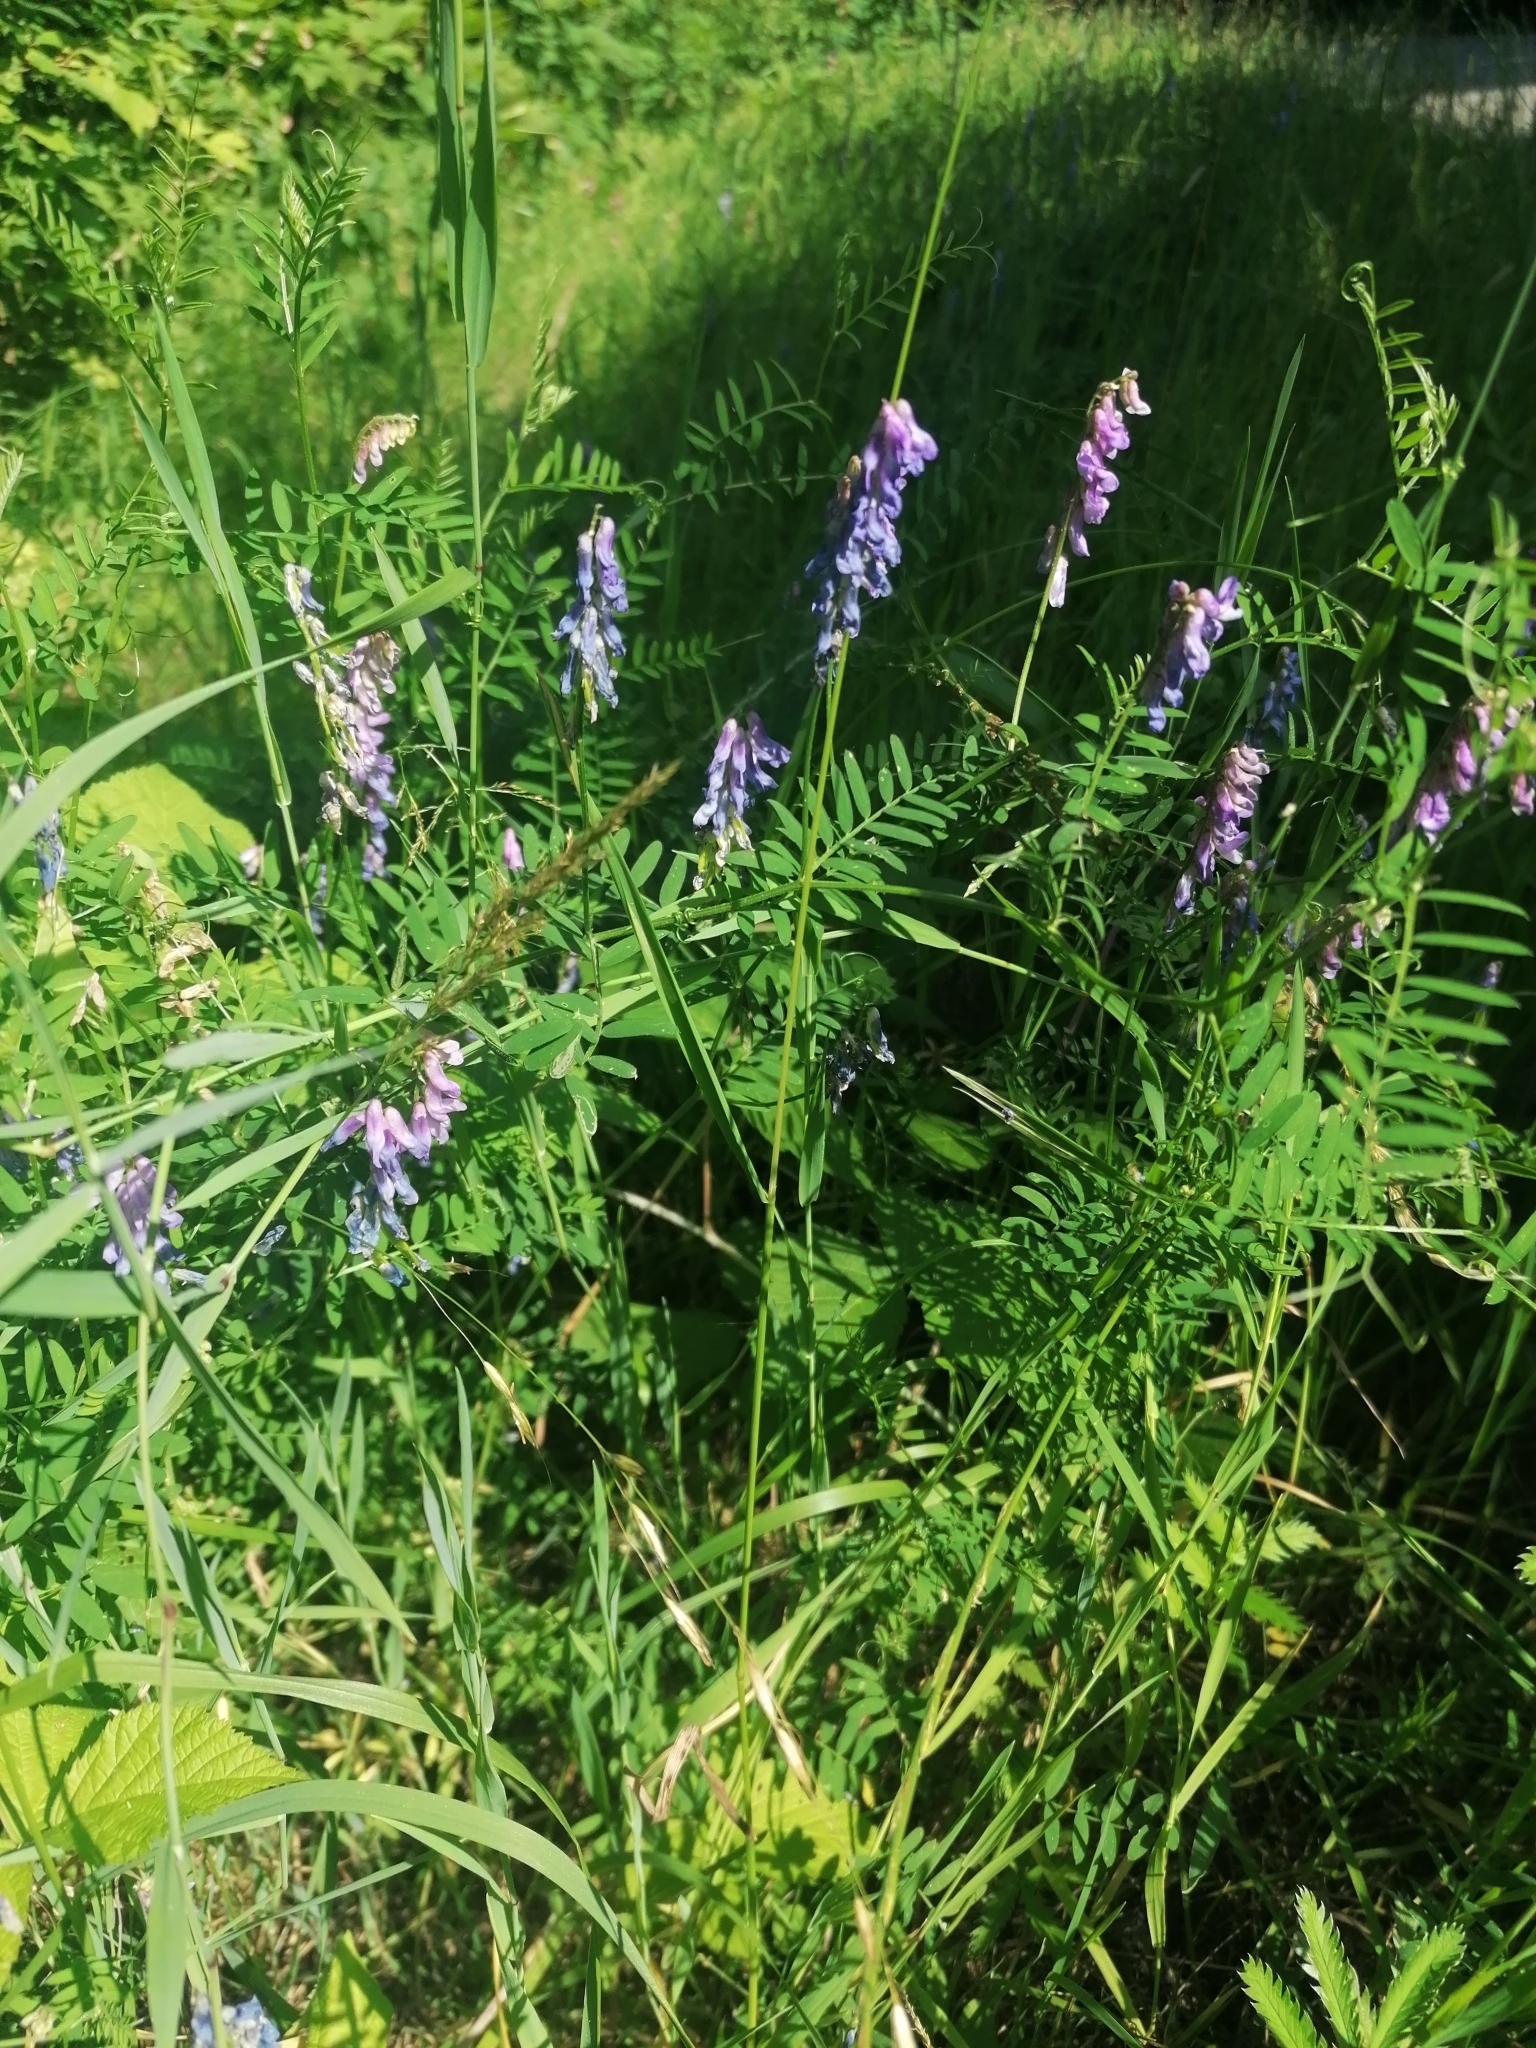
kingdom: Plantae
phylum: Tracheophyta
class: Magnoliopsida
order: Fabales
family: Fabaceae
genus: Vicia
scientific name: Vicia cracca
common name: Bird vetch
